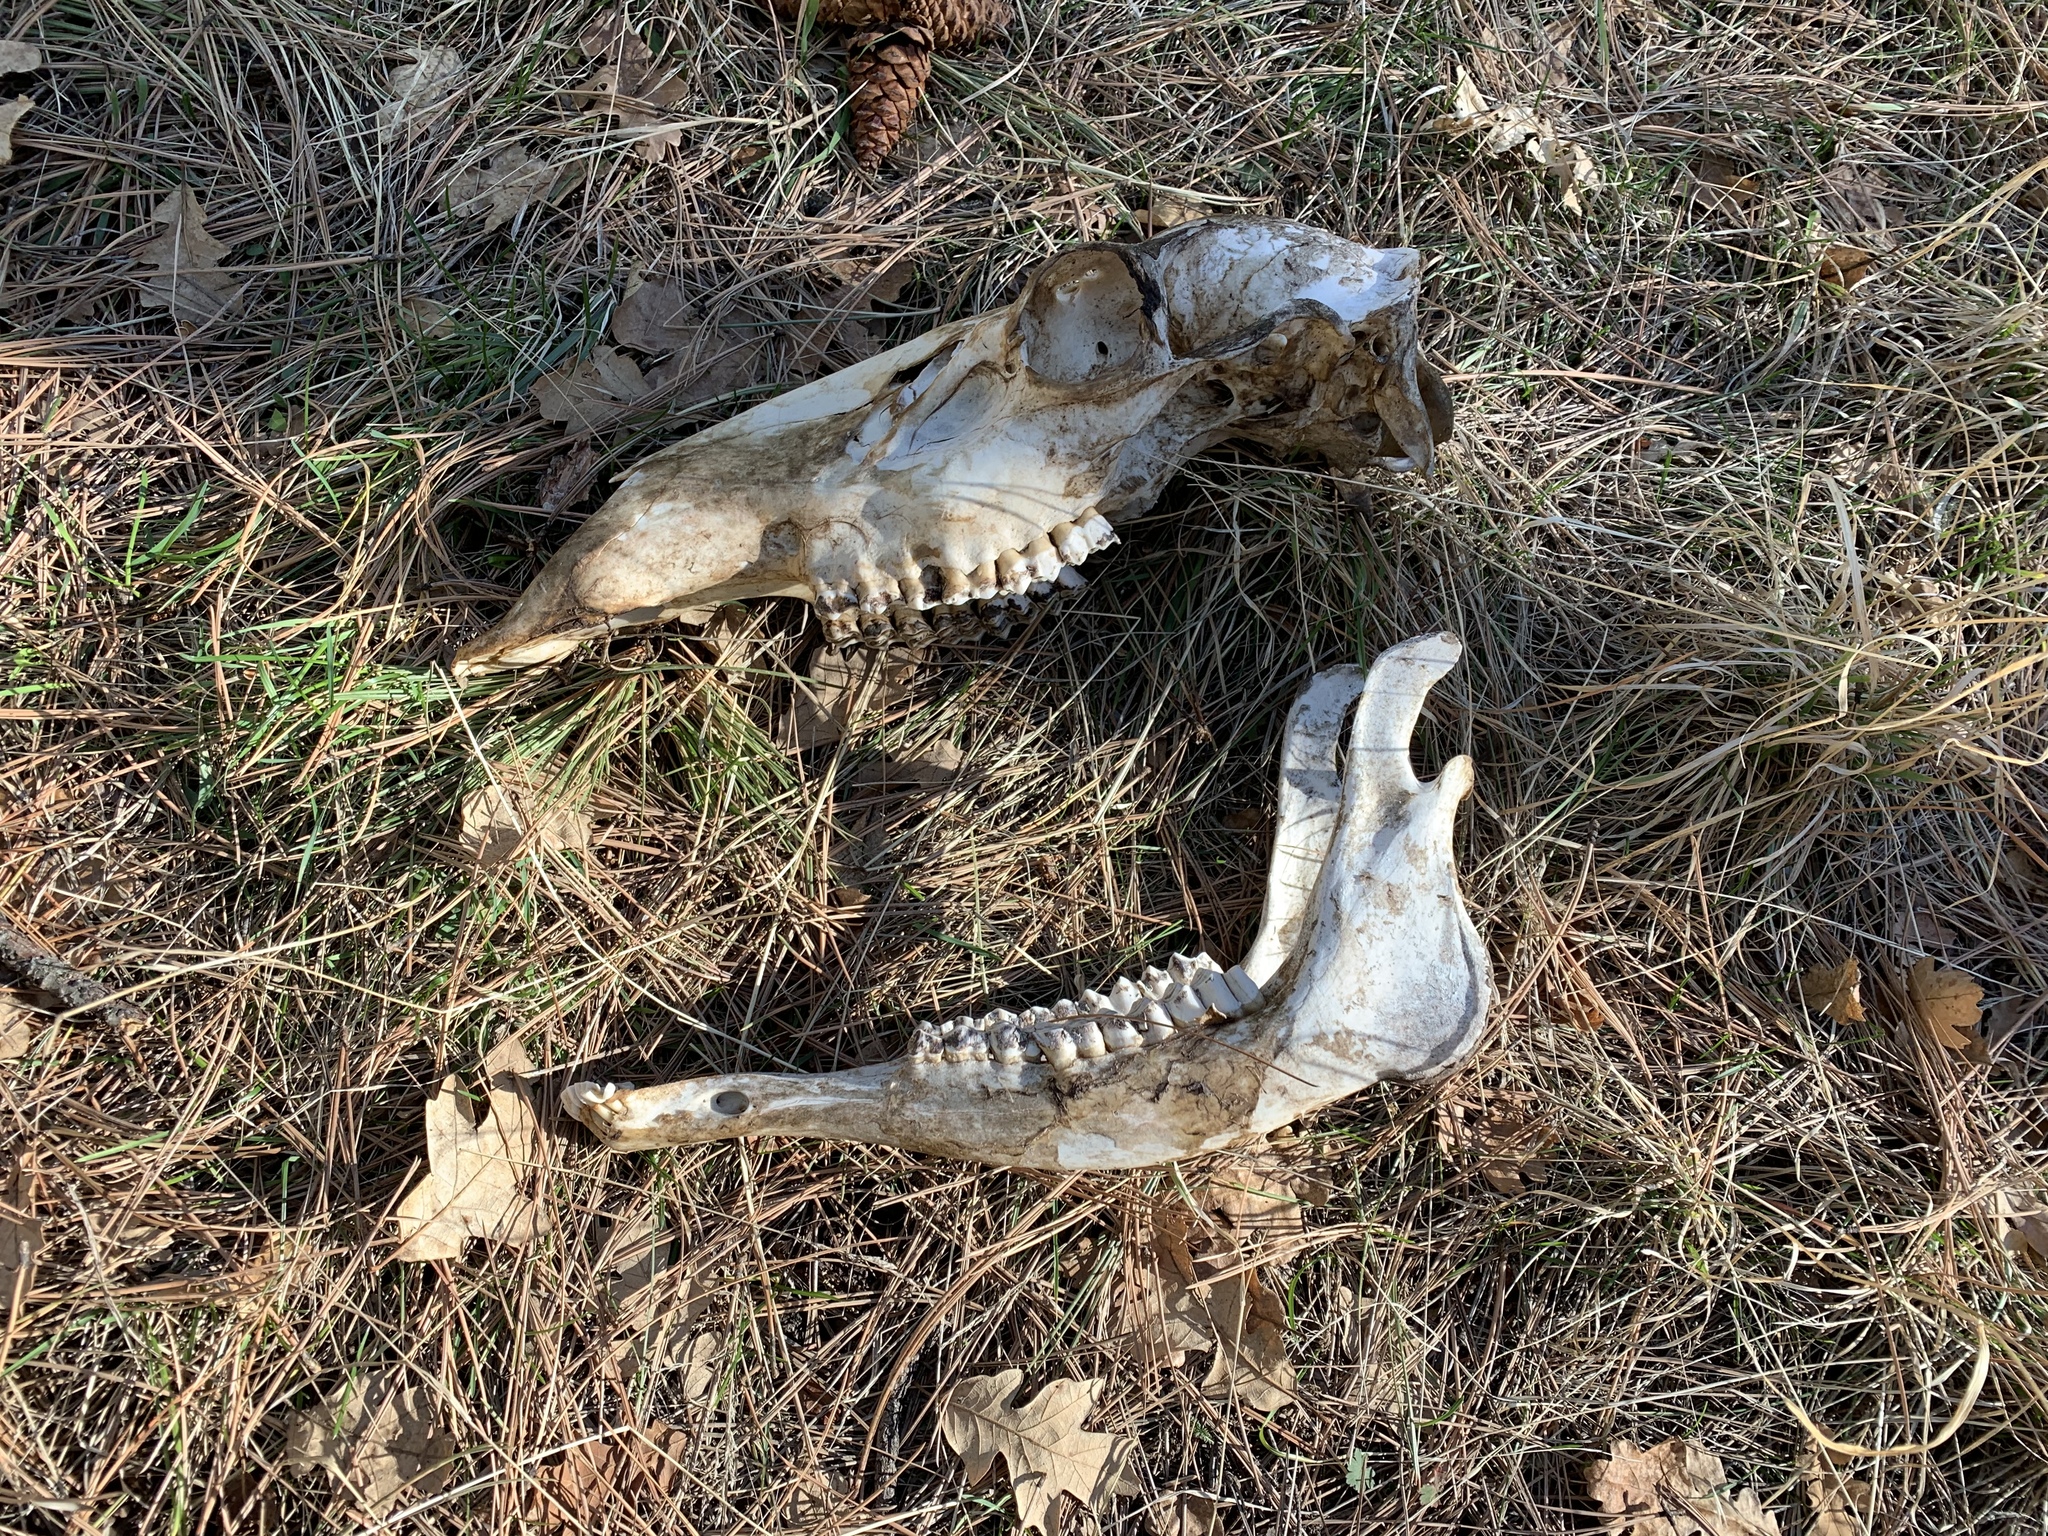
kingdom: Animalia
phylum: Chordata
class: Mammalia
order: Artiodactyla
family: Cervidae
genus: Cervus
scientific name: Cervus elaphus
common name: Red deer
